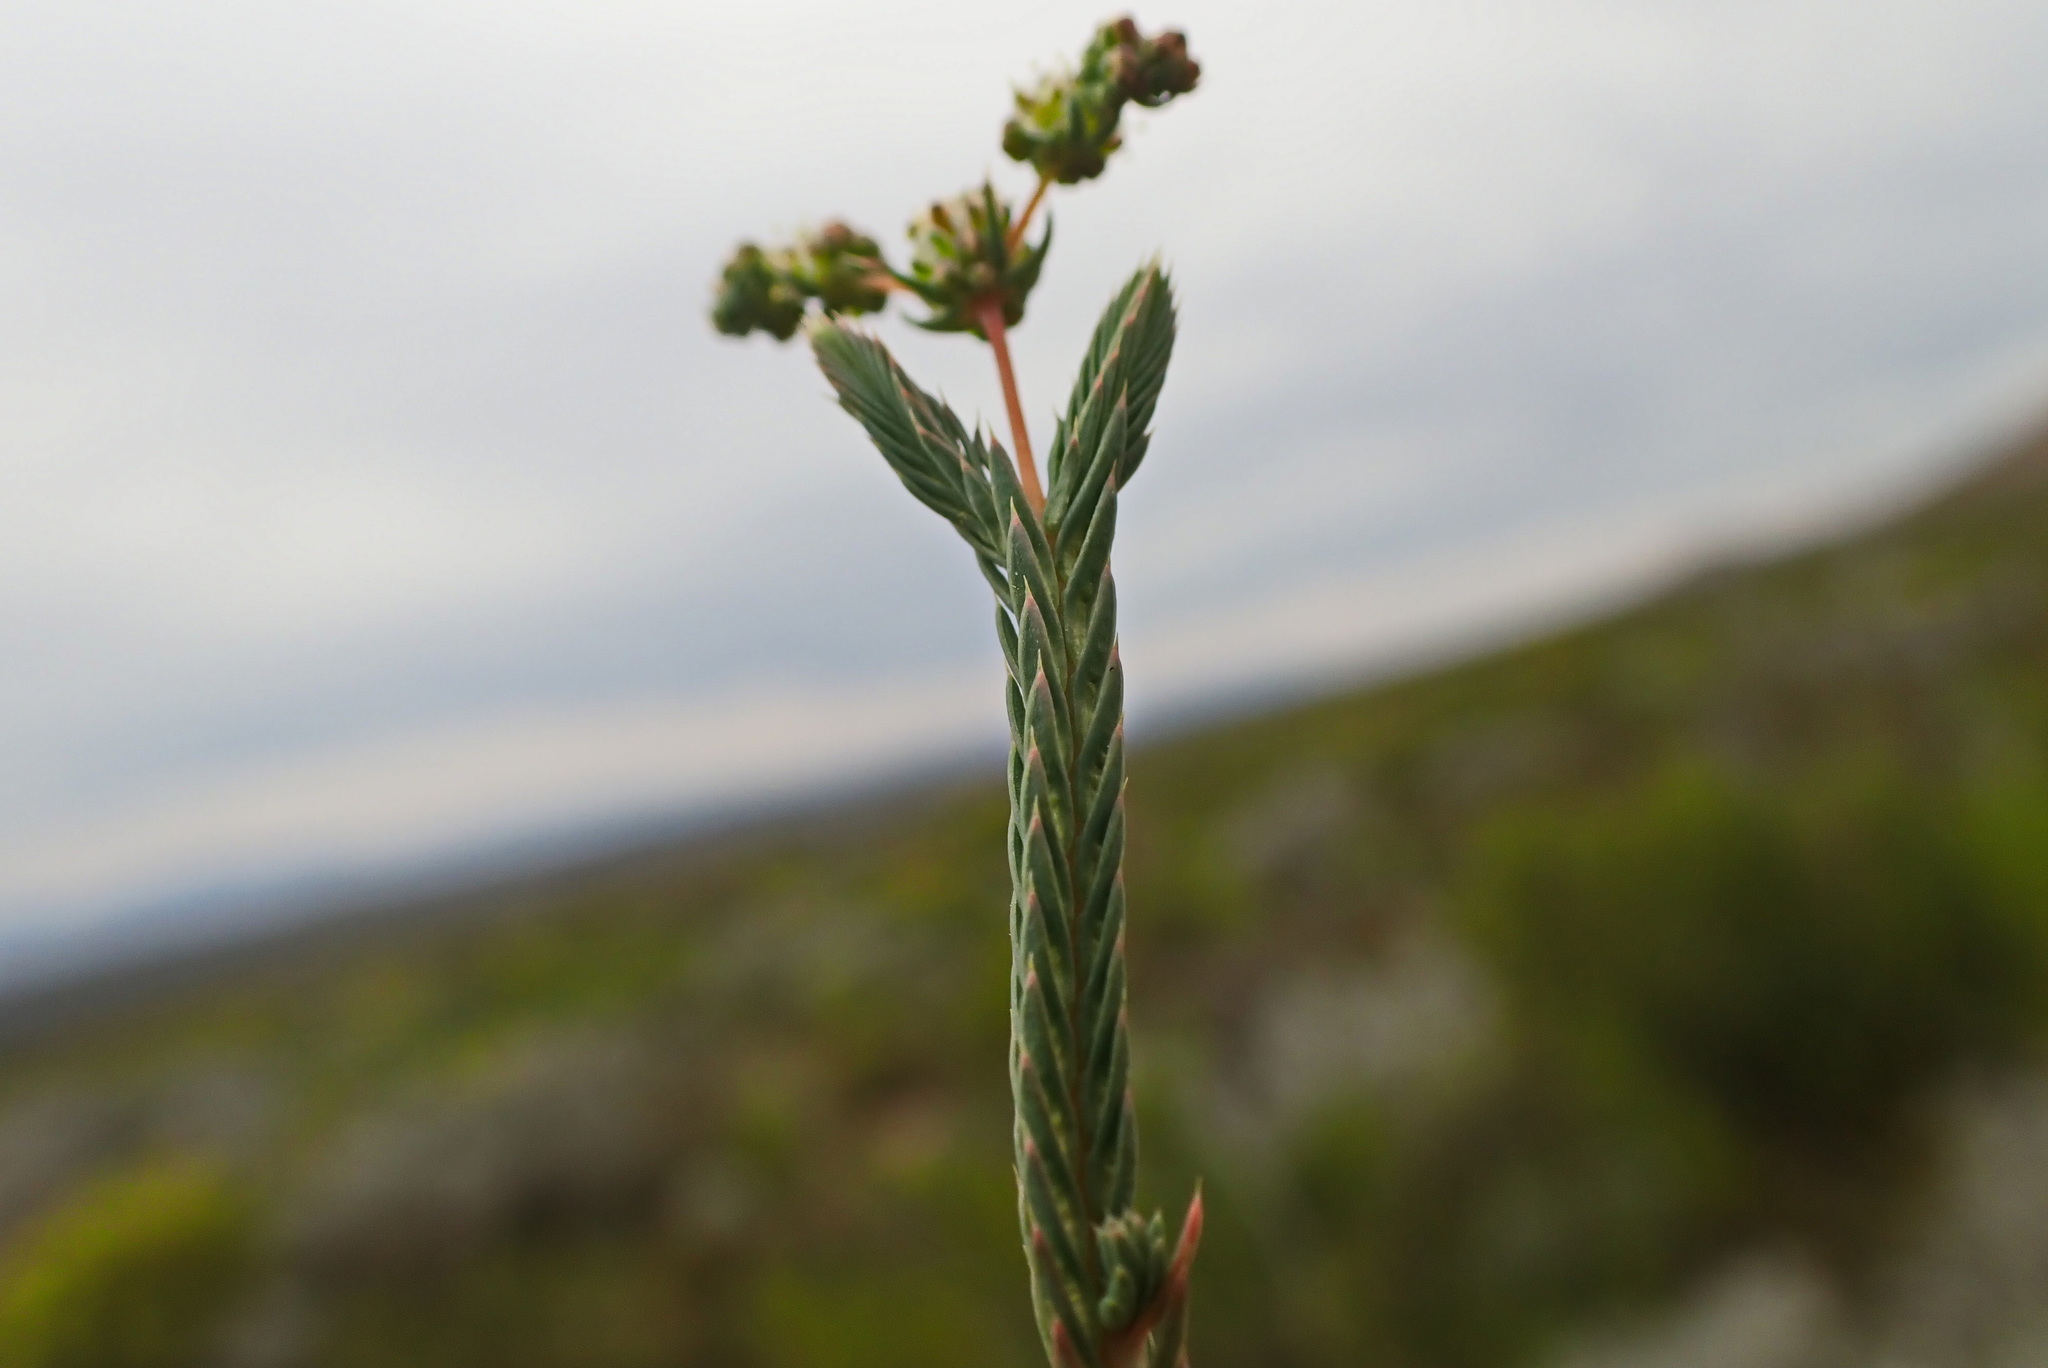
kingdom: Plantae
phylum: Tracheophyta
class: Magnoliopsida
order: Caryophyllales
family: Molluginaceae
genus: Psammotropha
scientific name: Psammotropha quadrangularis
